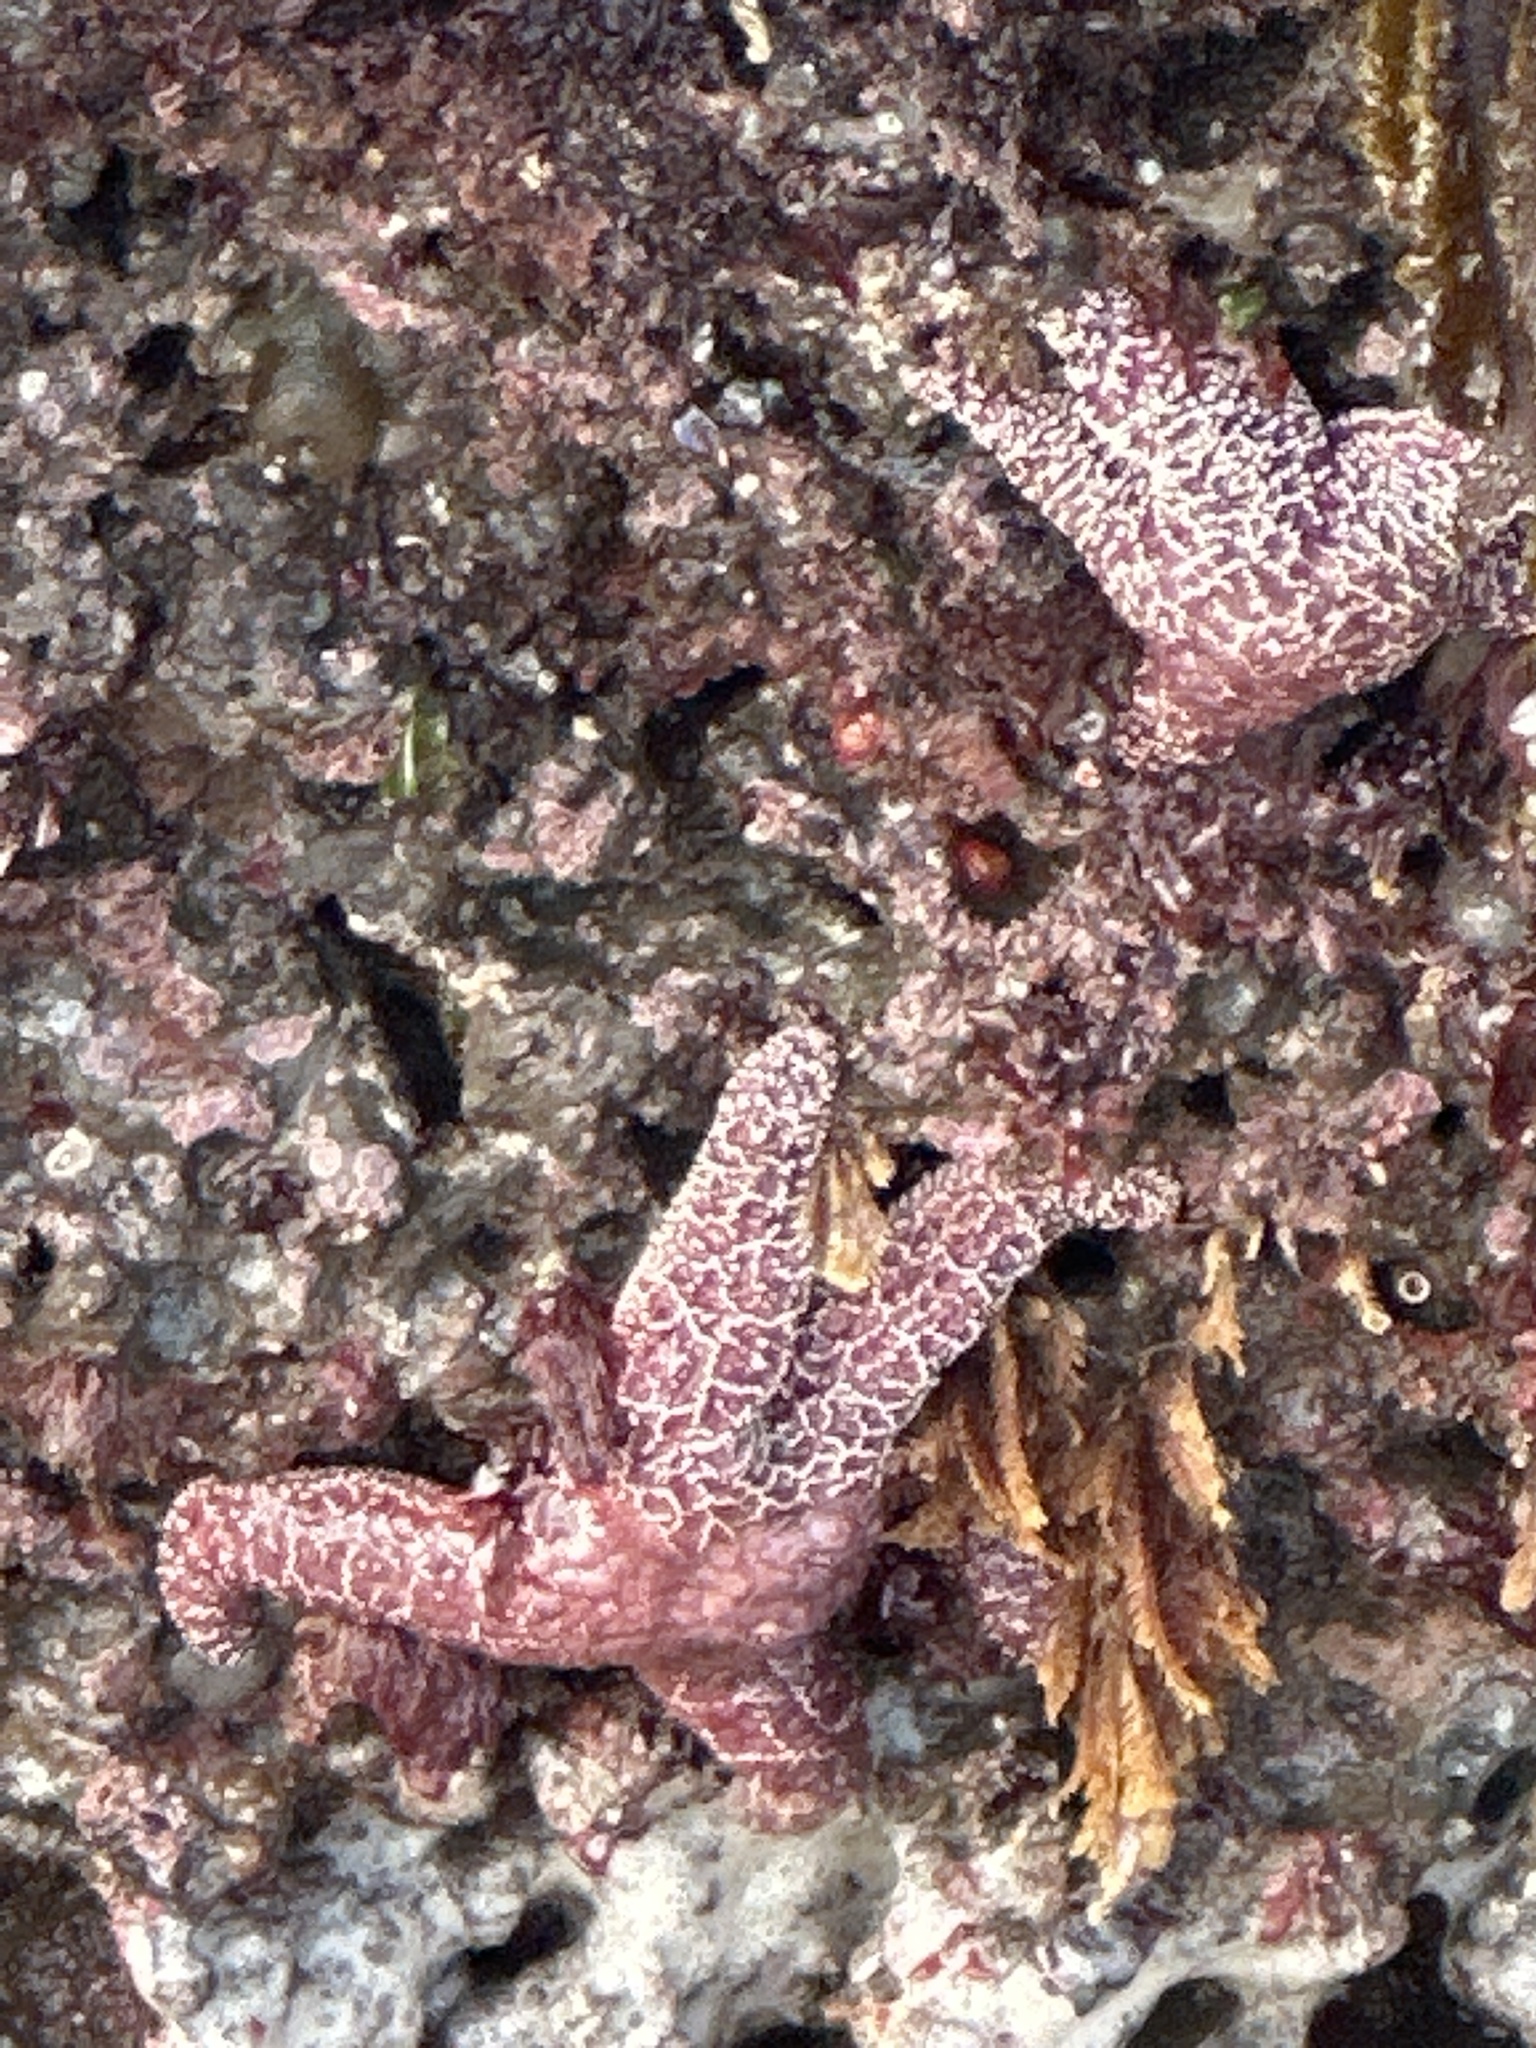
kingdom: Animalia
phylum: Echinodermata
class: Asteroidea
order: Forcipulatida
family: Asteriidae
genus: Pisaster
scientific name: Pisaster ochraceus
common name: Ochre stars
